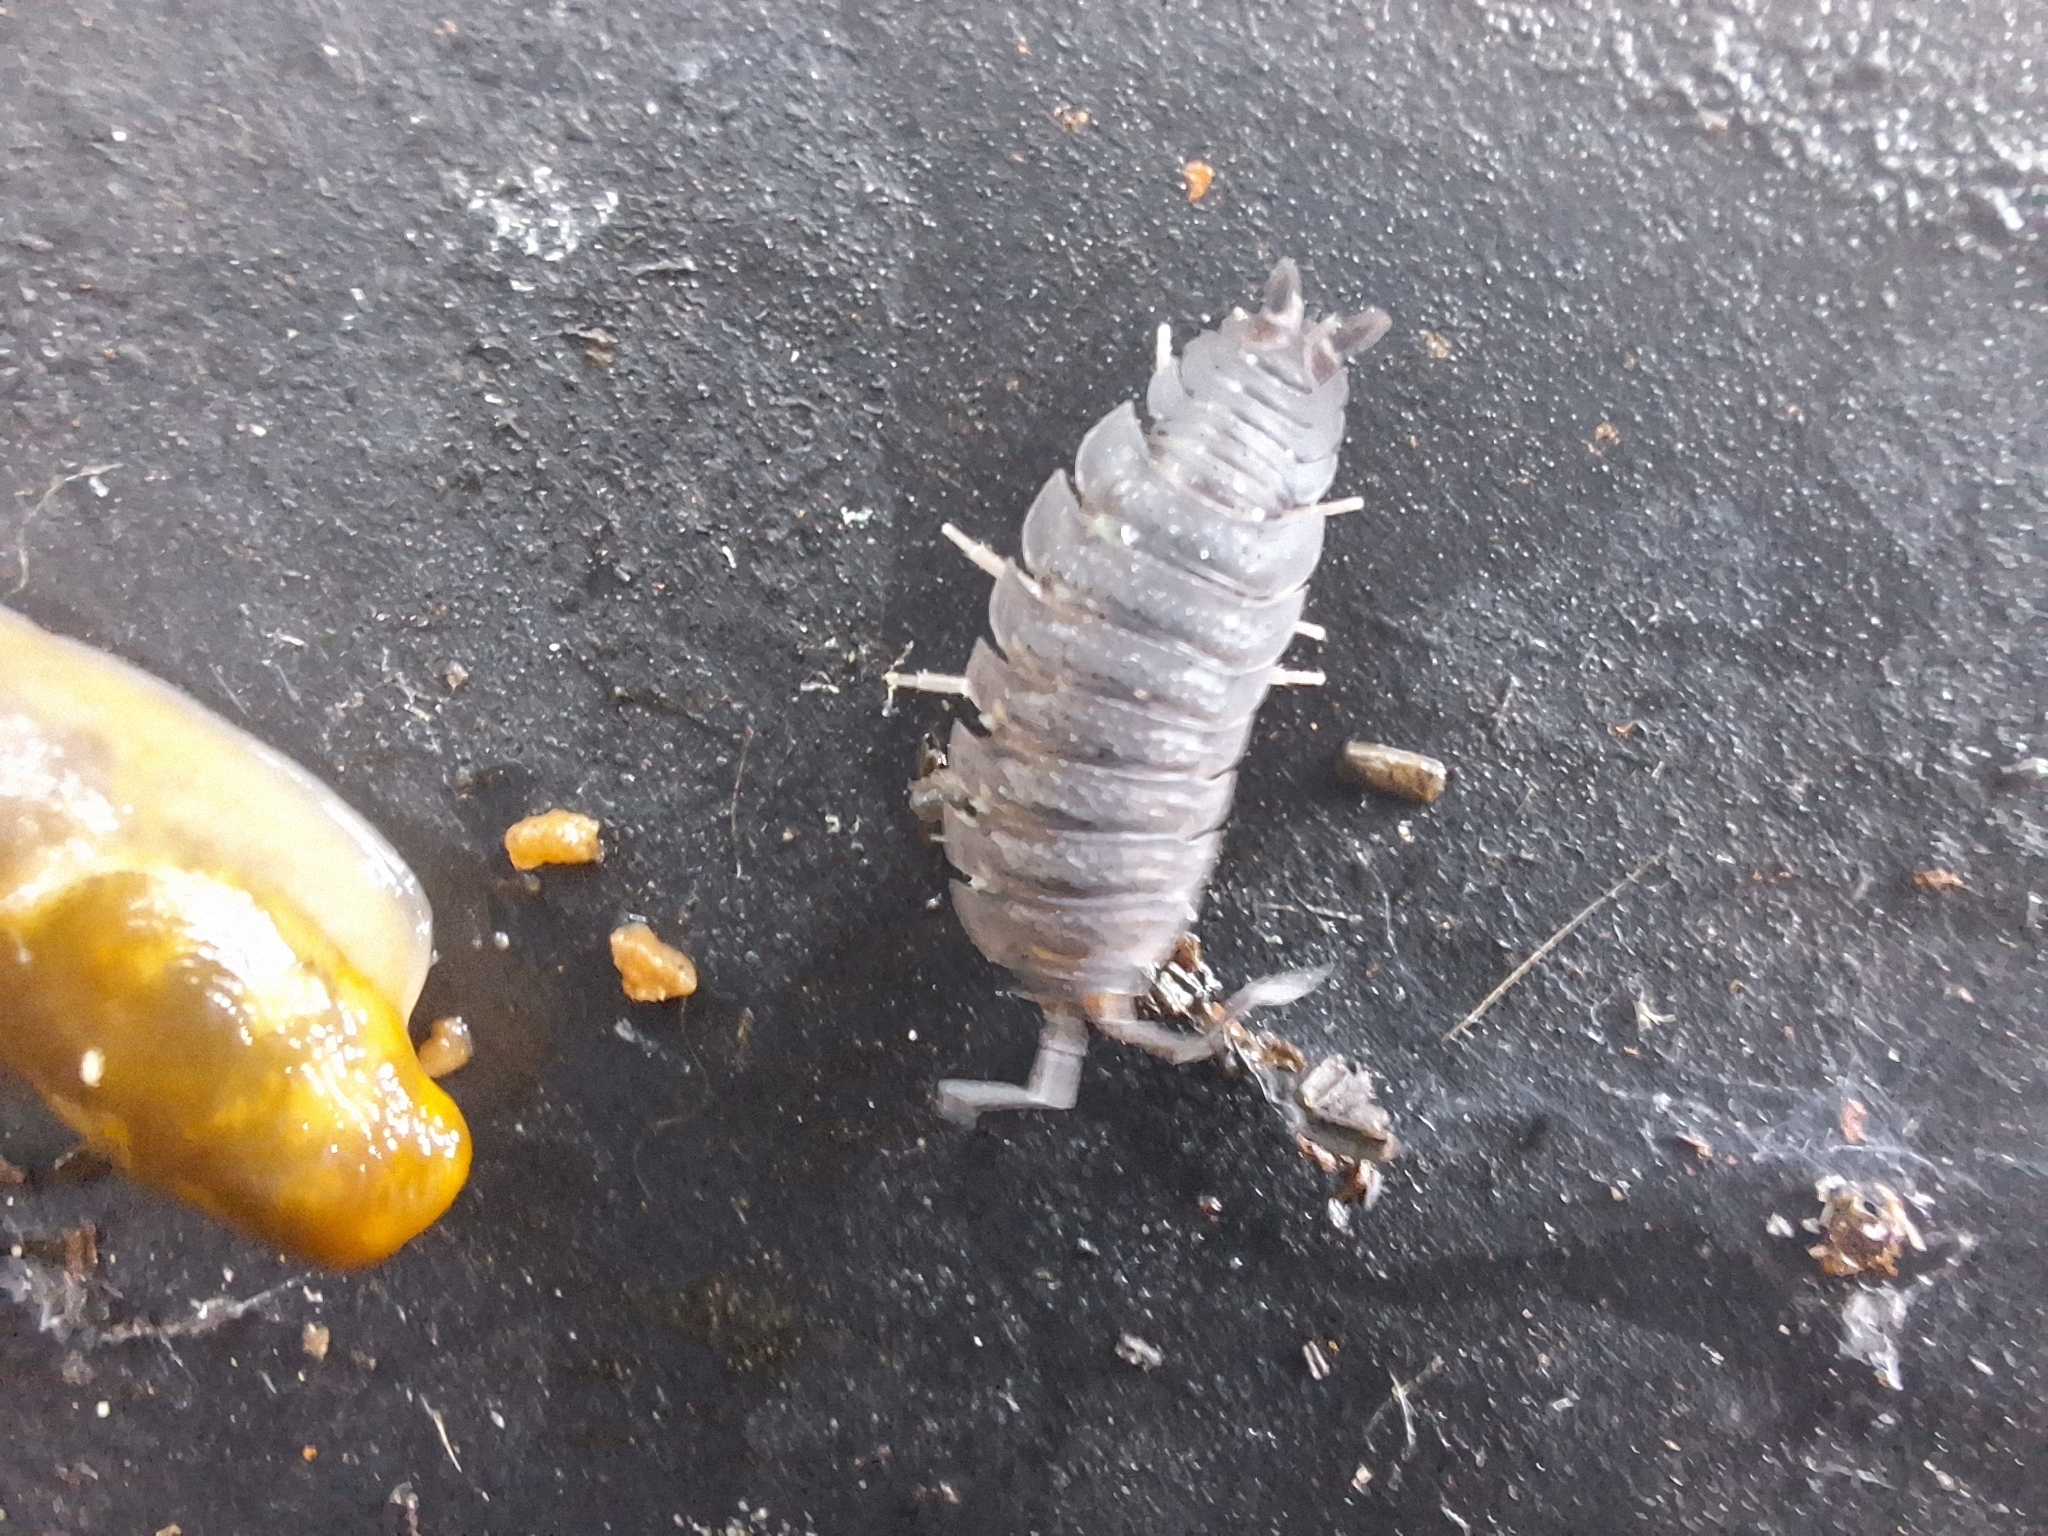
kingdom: Animalia
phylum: Arthropoda
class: Malacostraca
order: Isopoda
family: Porcellionidae
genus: Porcellio
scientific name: Porcellio scaber
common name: Common rough woodlouse
